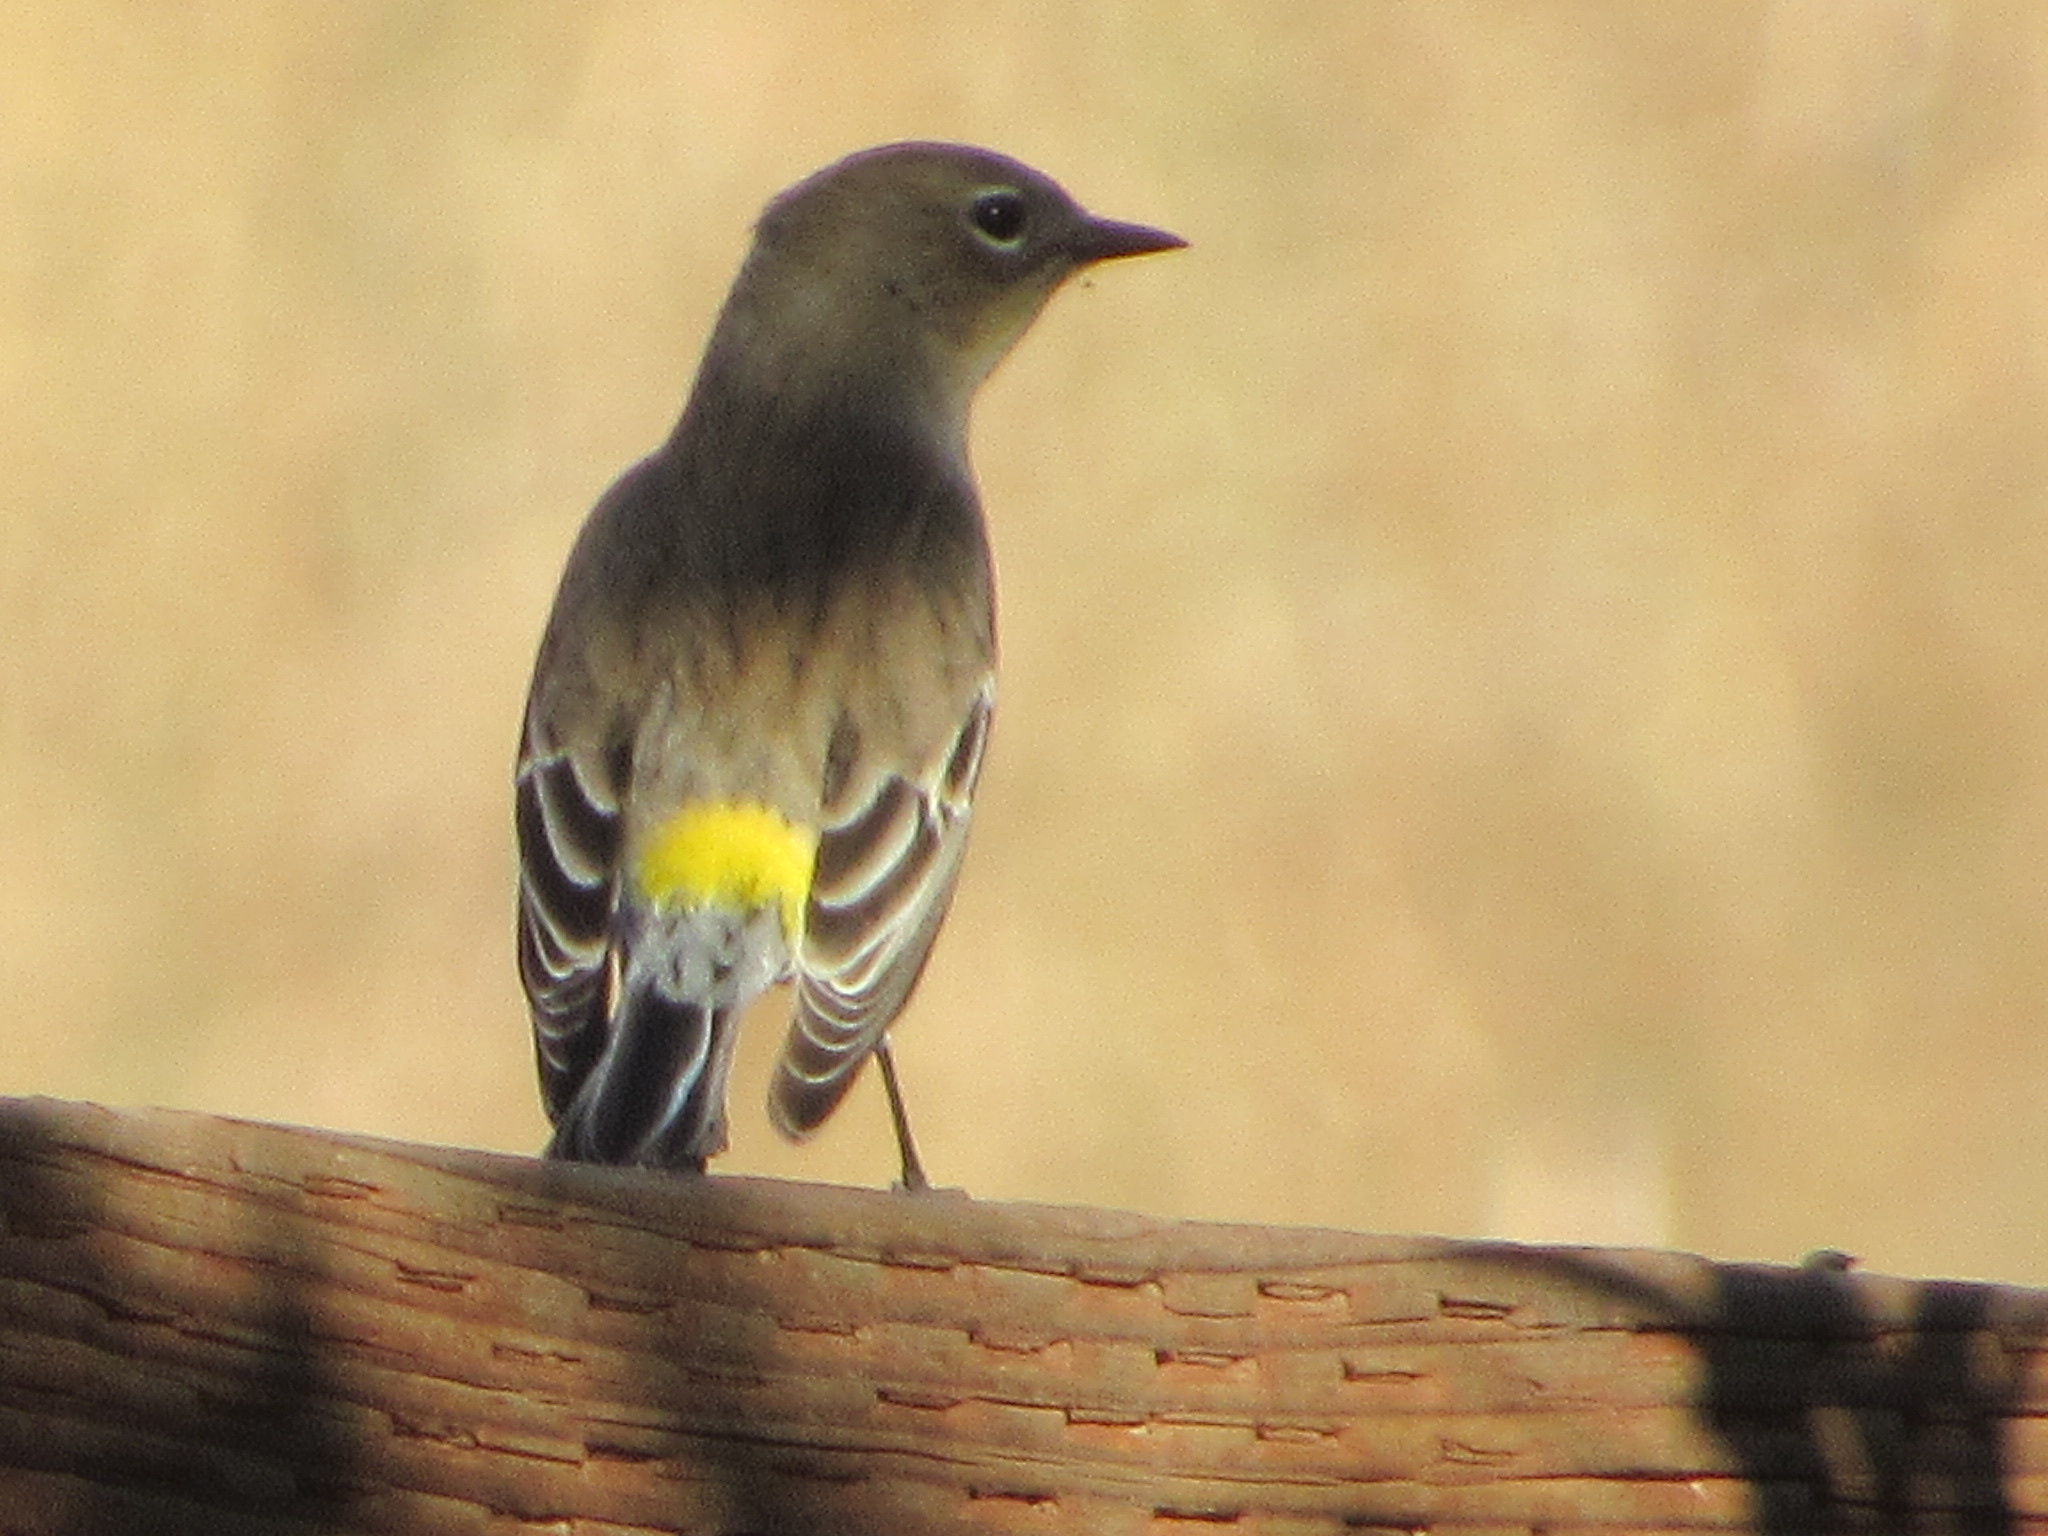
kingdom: Animalia
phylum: Chordata
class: Aves
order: Passeriformes
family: Parulidae
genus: Setophaga
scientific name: Setophaga coronata
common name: Myrtle warbler
